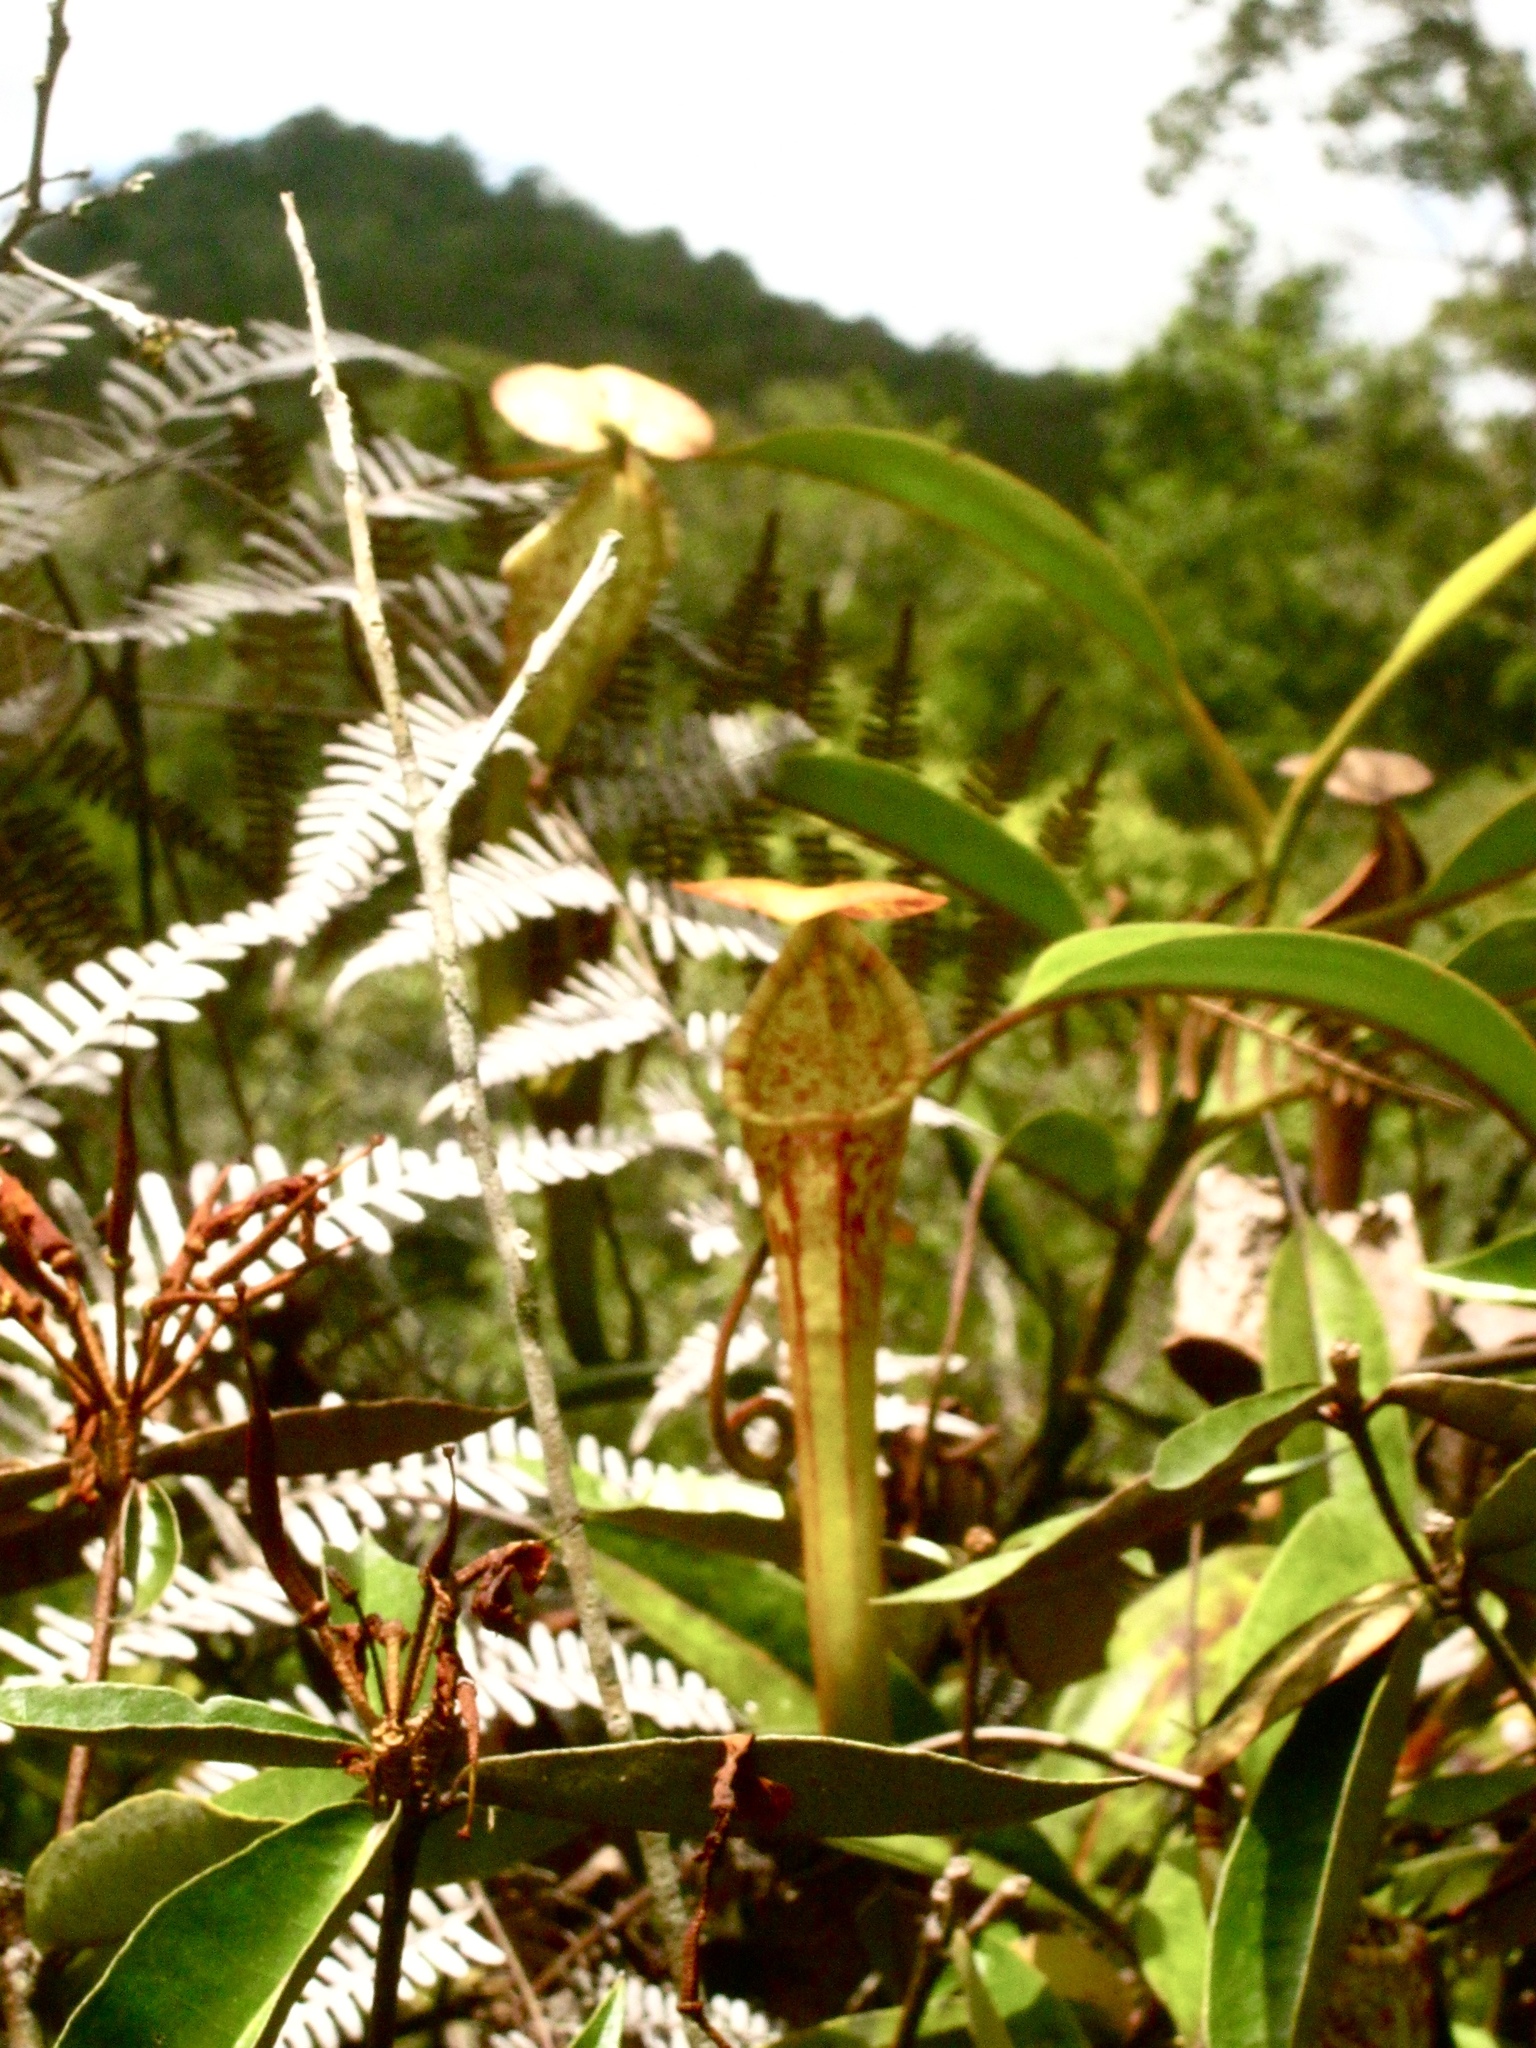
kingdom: Plantae
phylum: Tracheophyta
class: Magnoliopsida
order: Caryophyllales
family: Nepenthaceae
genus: Nepenthes
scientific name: Nepenthes stenophylla
